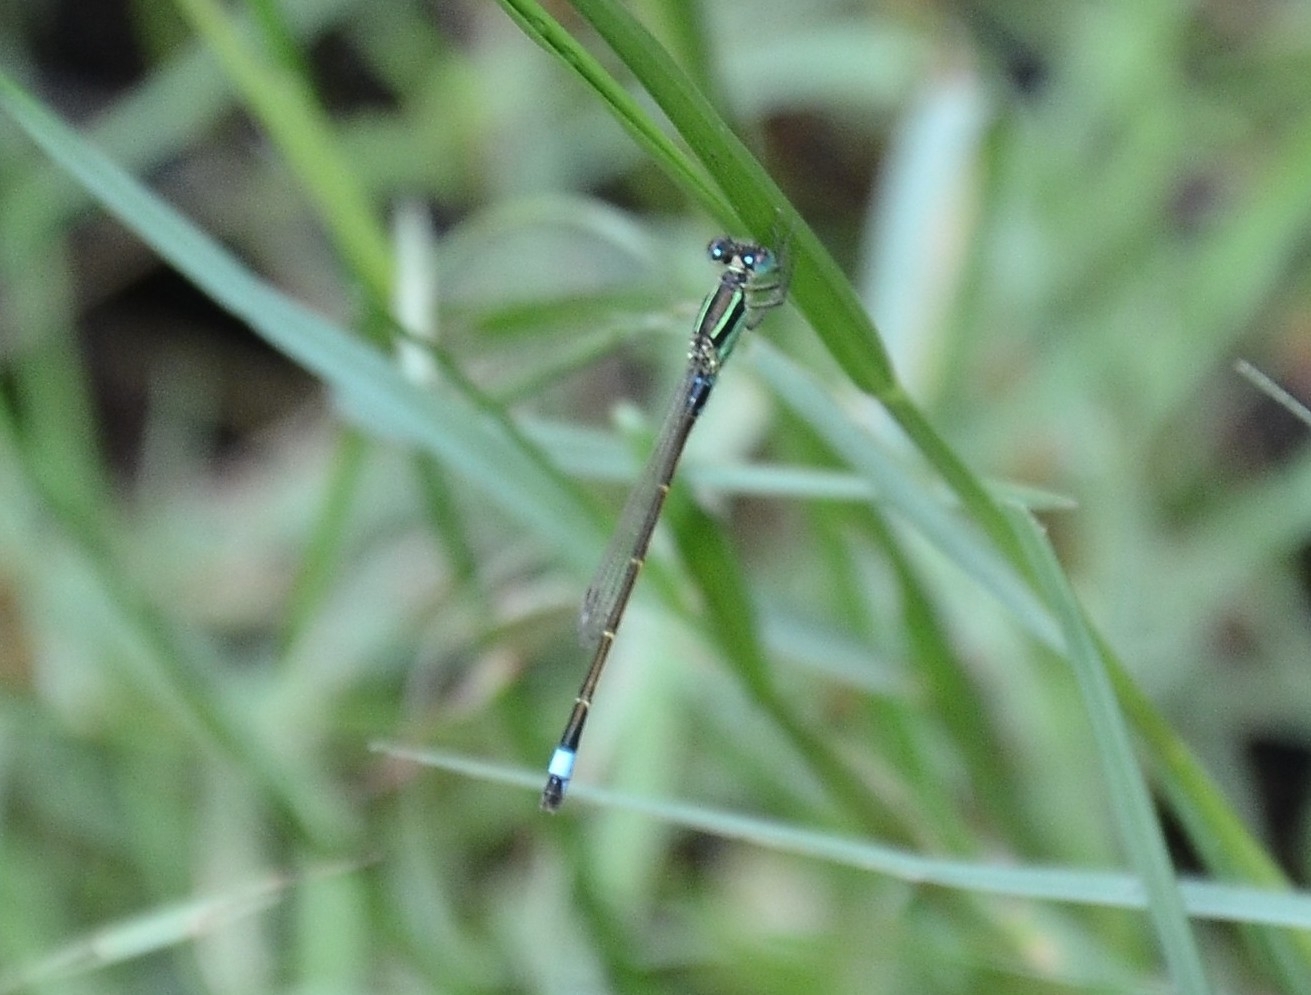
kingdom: Animalia
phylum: Arthropoda
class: Insecta
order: Odonata
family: Coenagrionidae
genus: Ischnura
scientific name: Ischnura senegalensis
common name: Tropical bluetail
